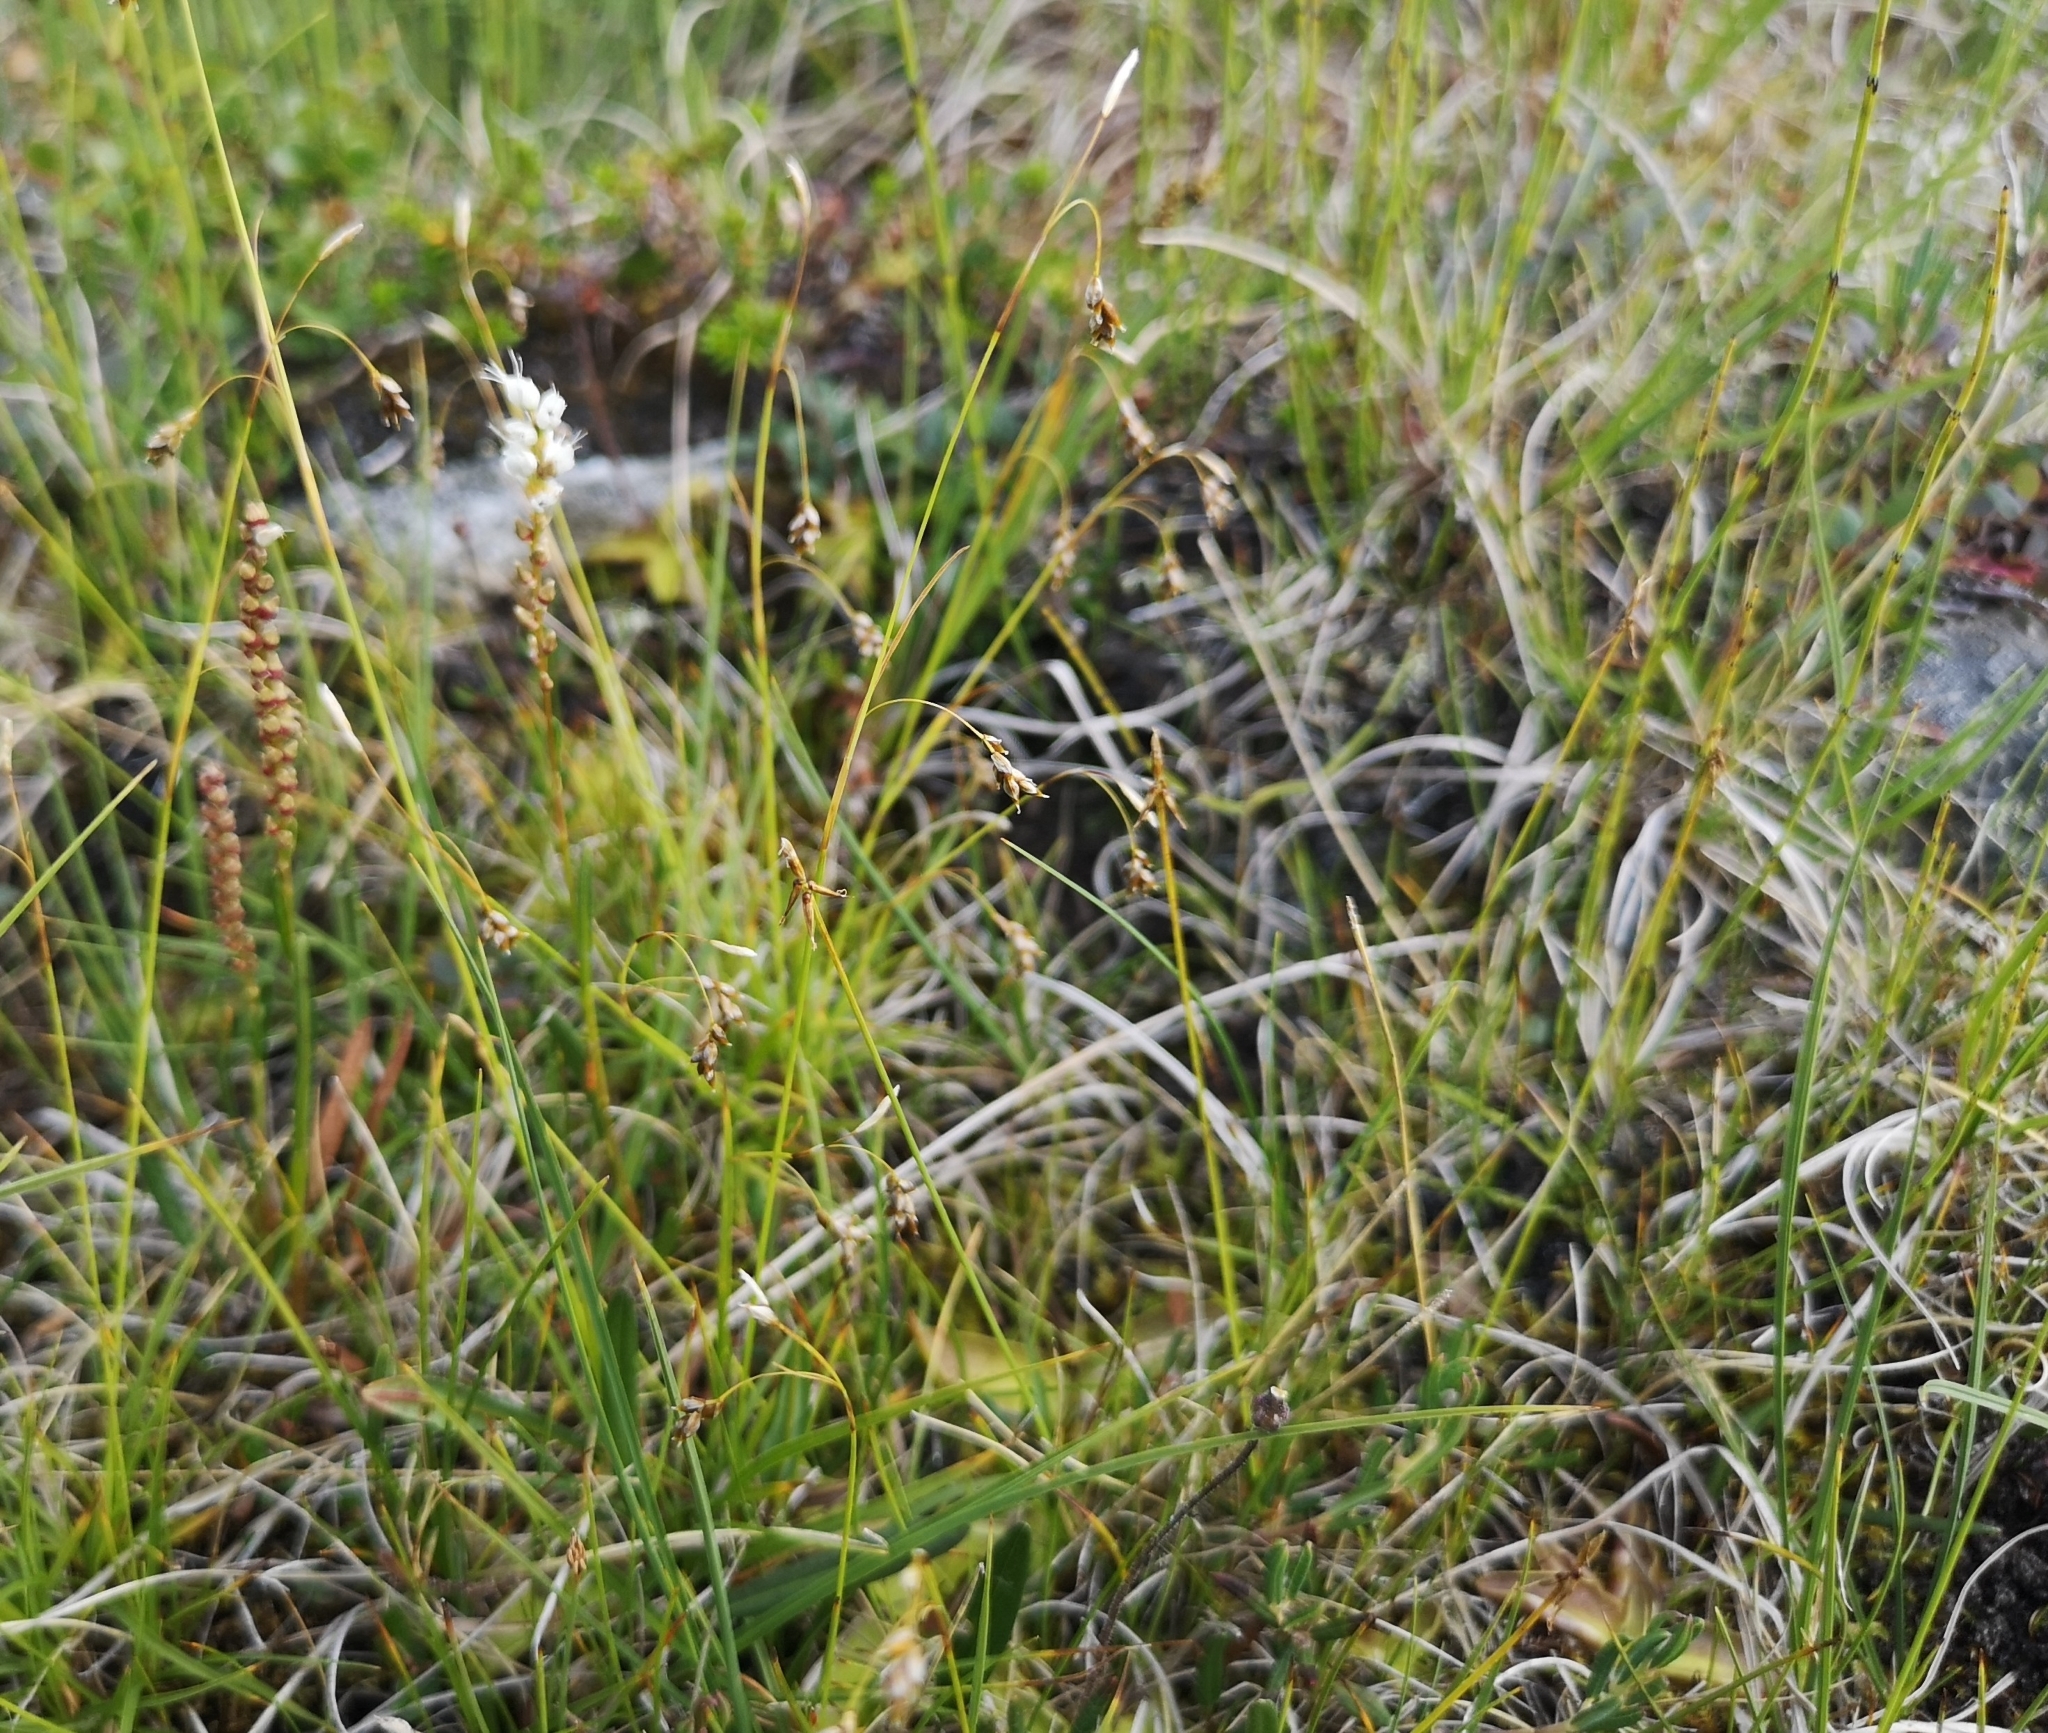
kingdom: Plantae
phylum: Tracheophyta
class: Liliopsida
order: Poales
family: Cyperaceae
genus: Carex
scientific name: Carex limosa
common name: Bog sedge
